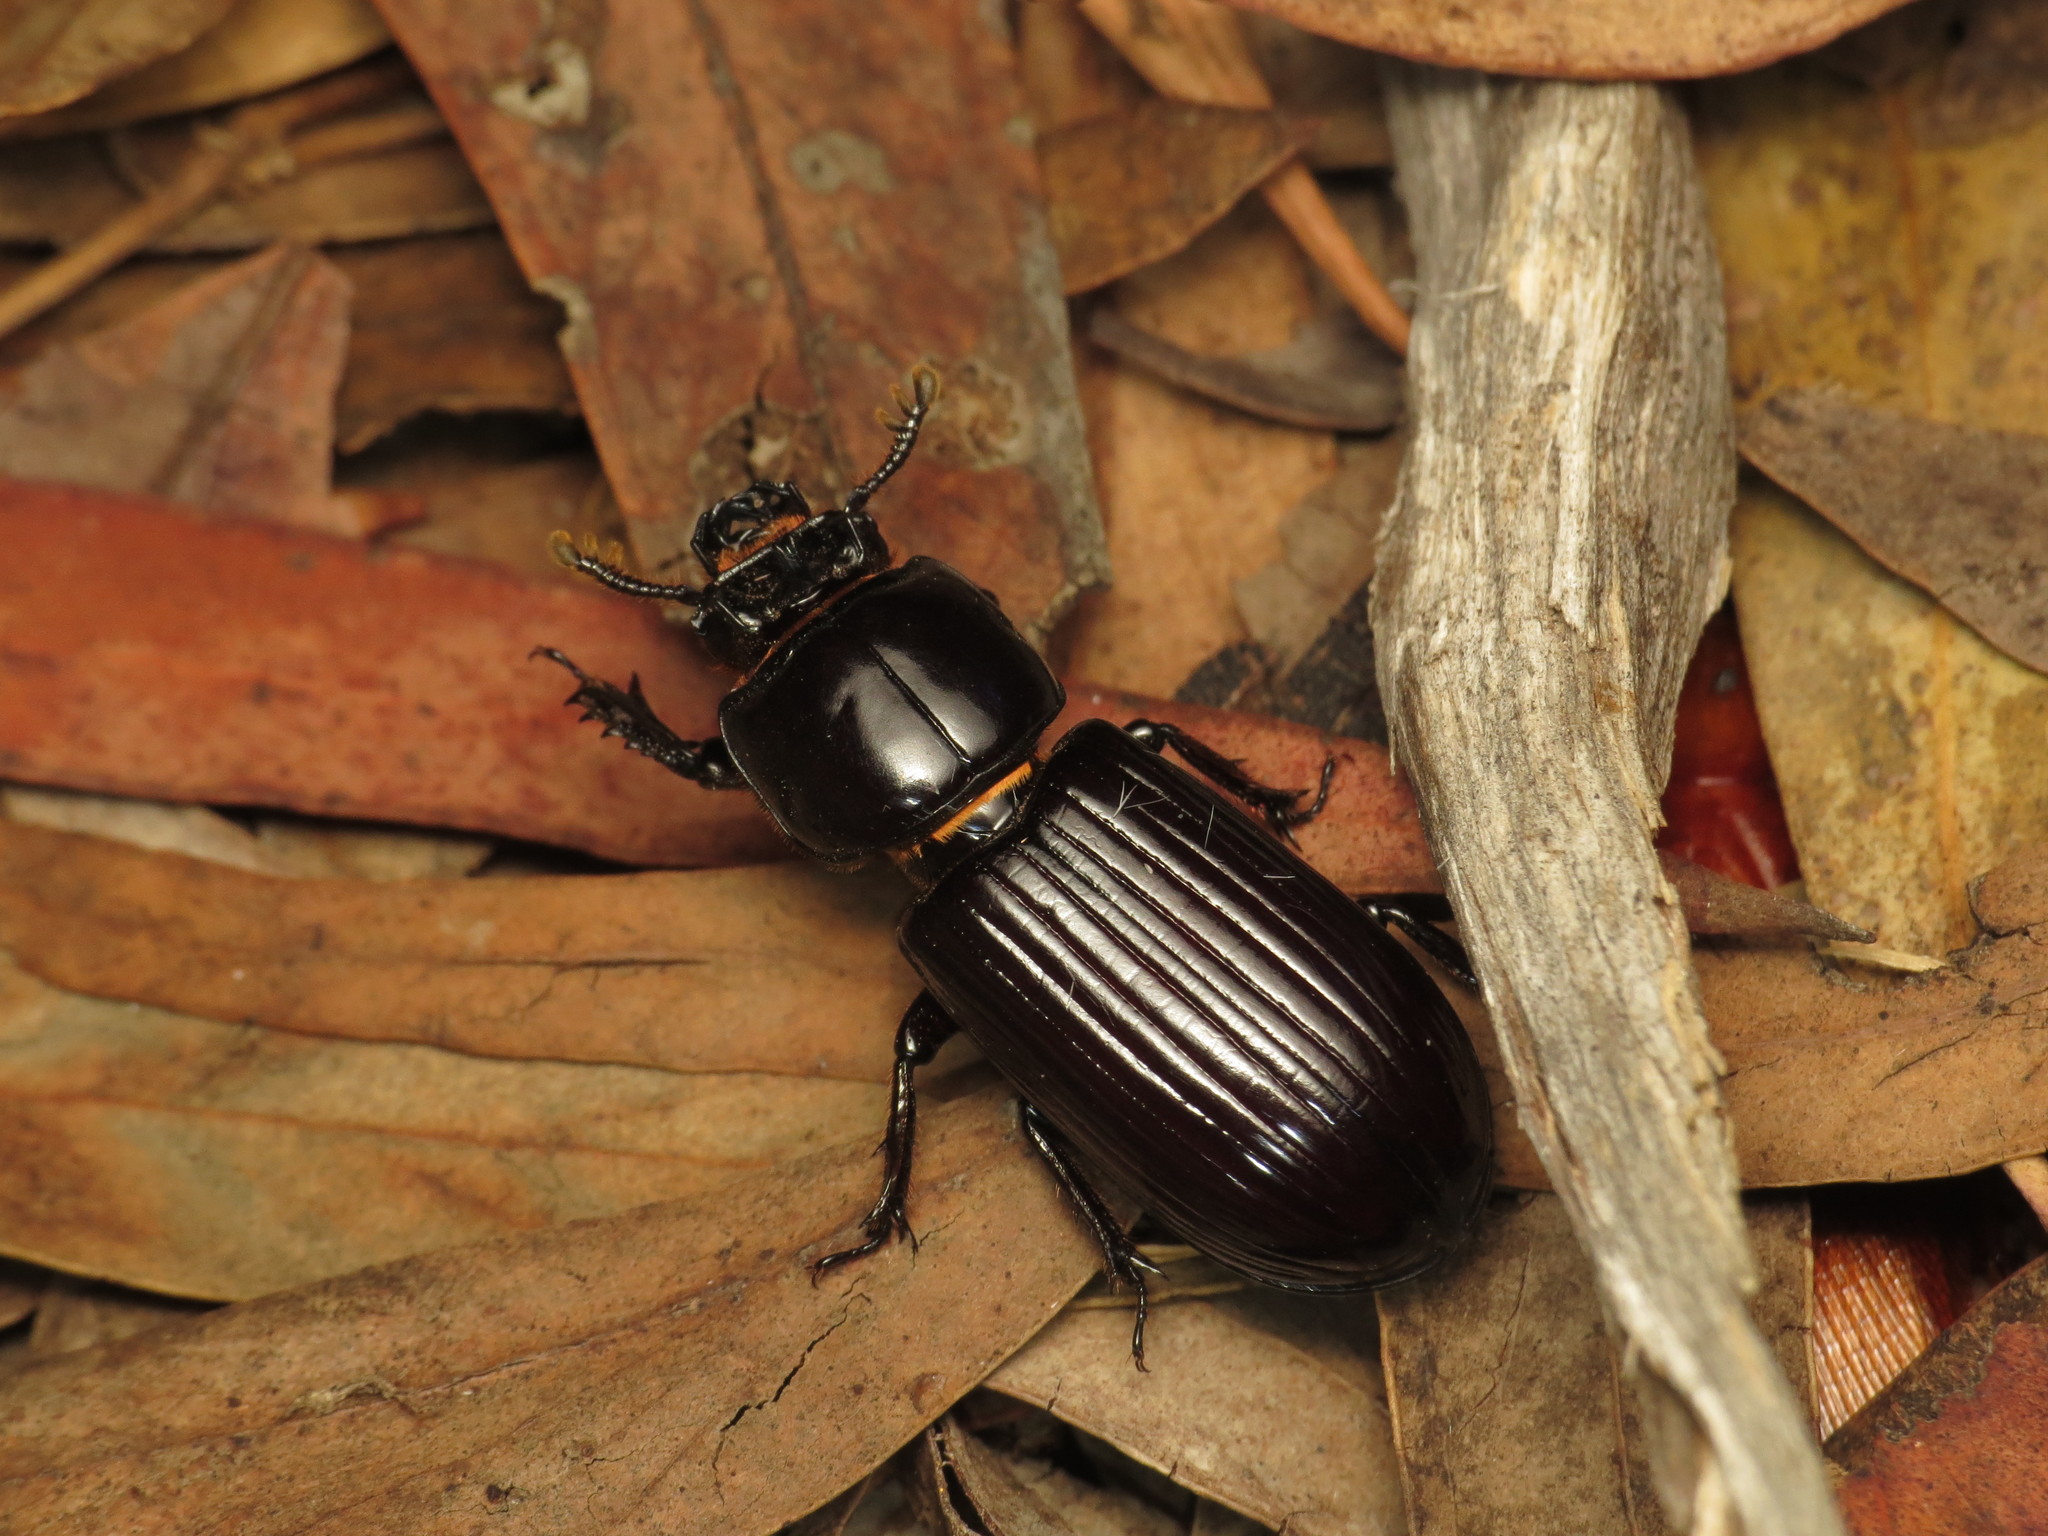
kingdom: Animalia
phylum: Arthropoda
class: Insecta
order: Coleoptera
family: Passalidae
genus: Aulacocyclus
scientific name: Aulacocyclus edentulus
